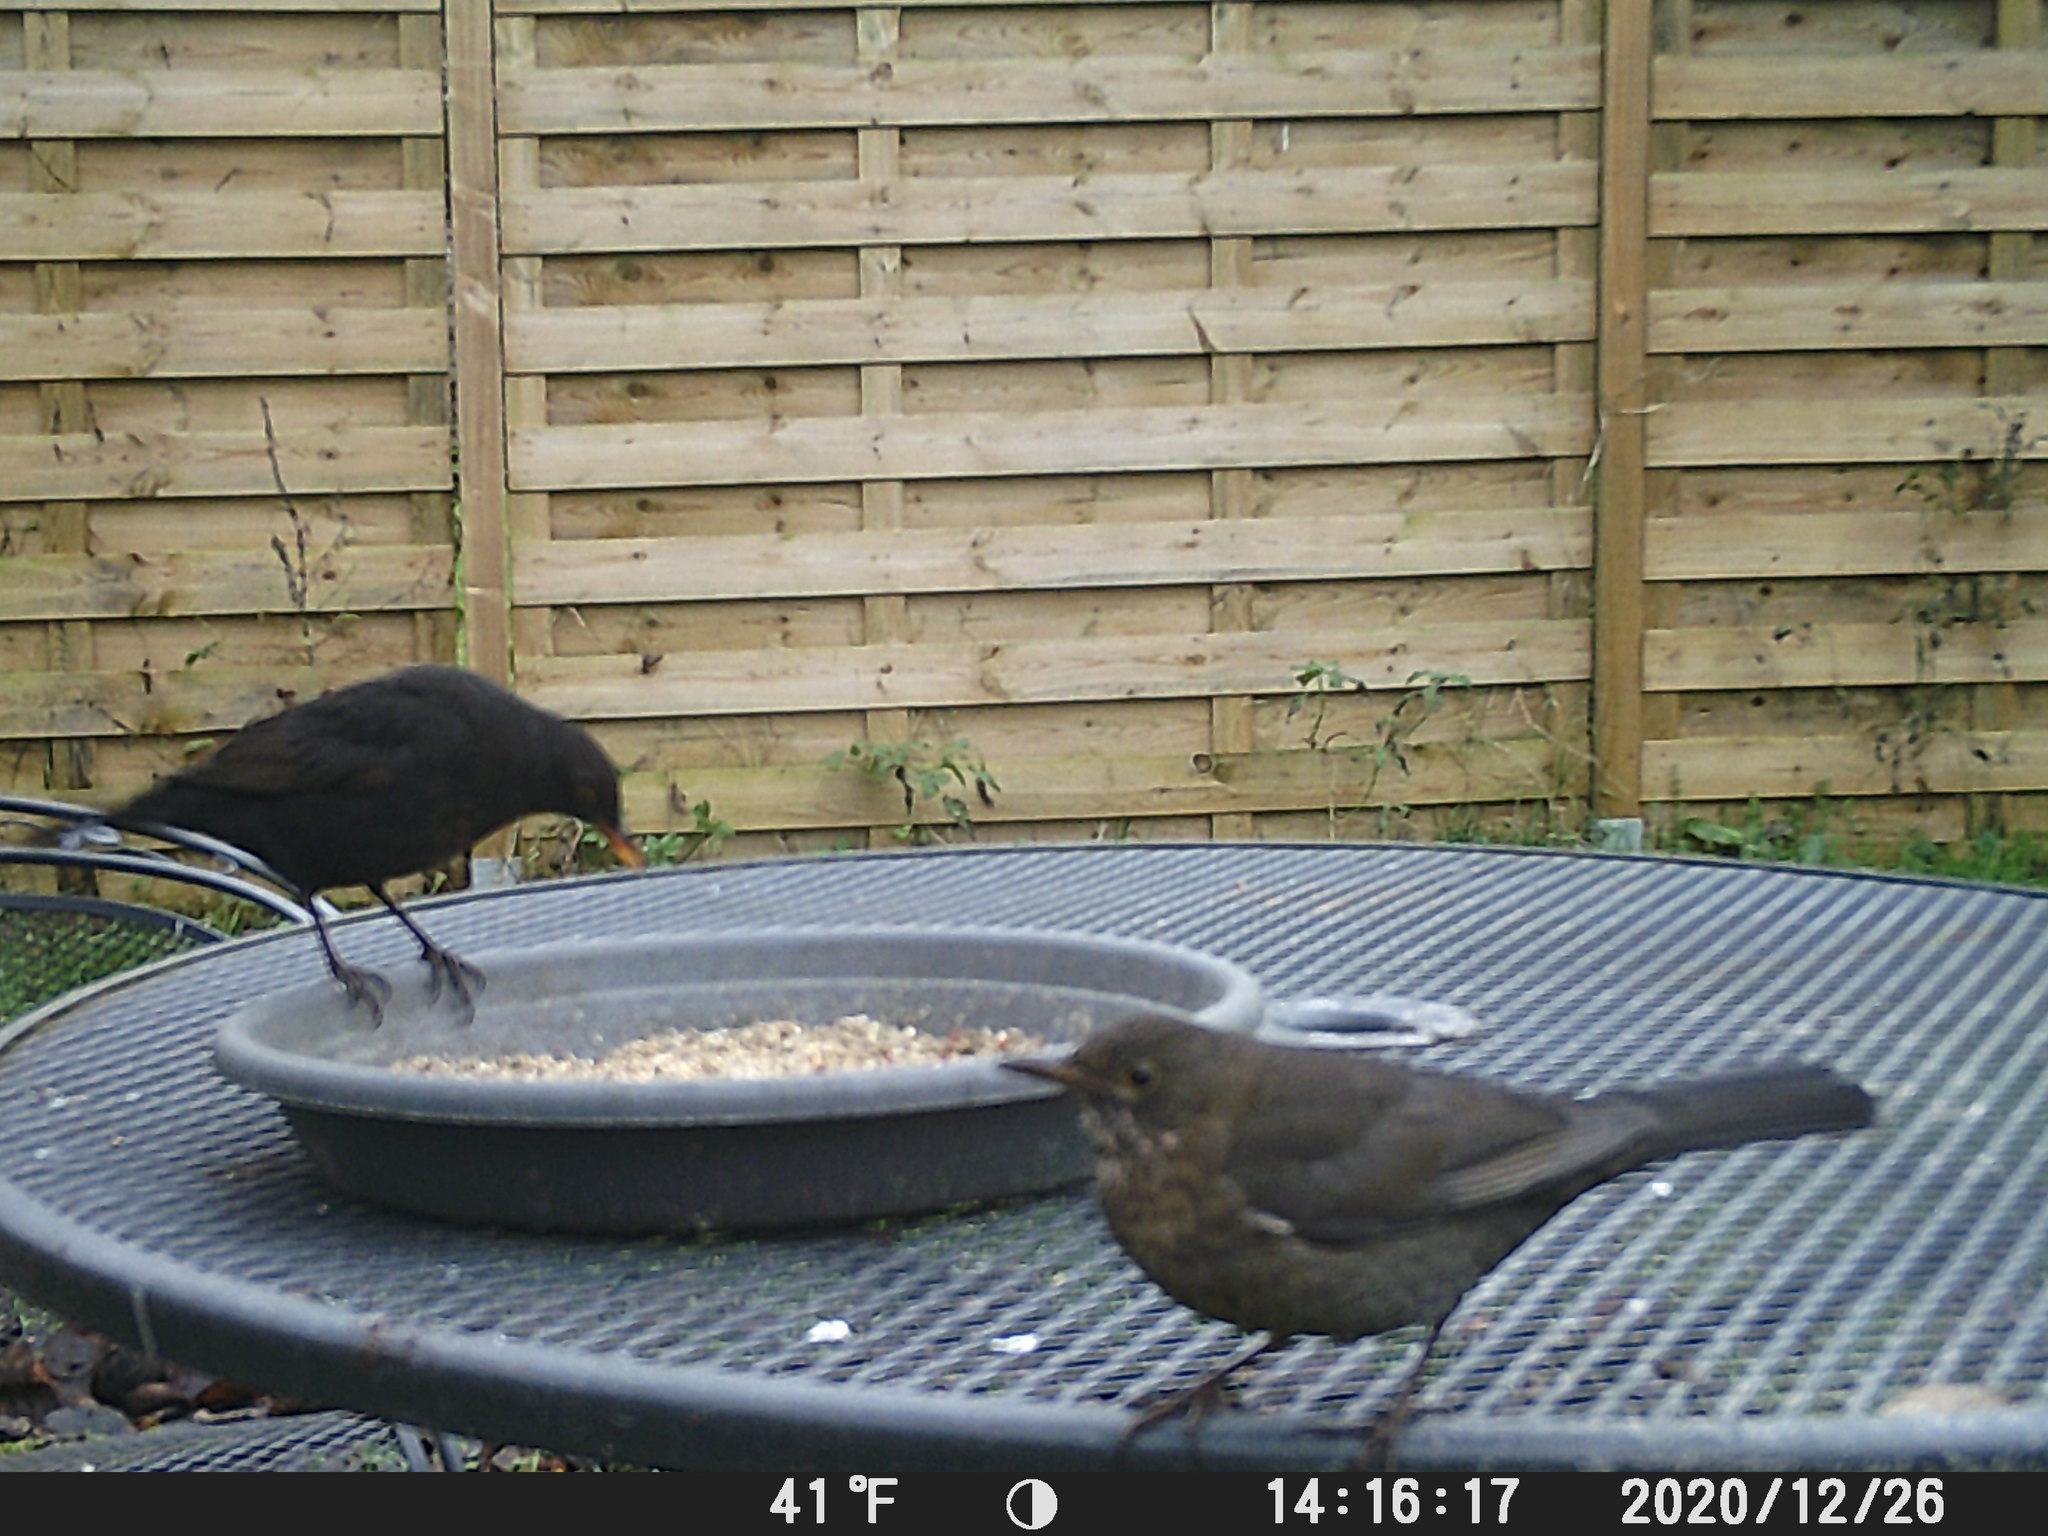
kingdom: Animalia
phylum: Chordata
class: Aves
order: Passeriformes
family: Turdidae
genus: Turdus
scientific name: Turdus merula
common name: Common blackbird
